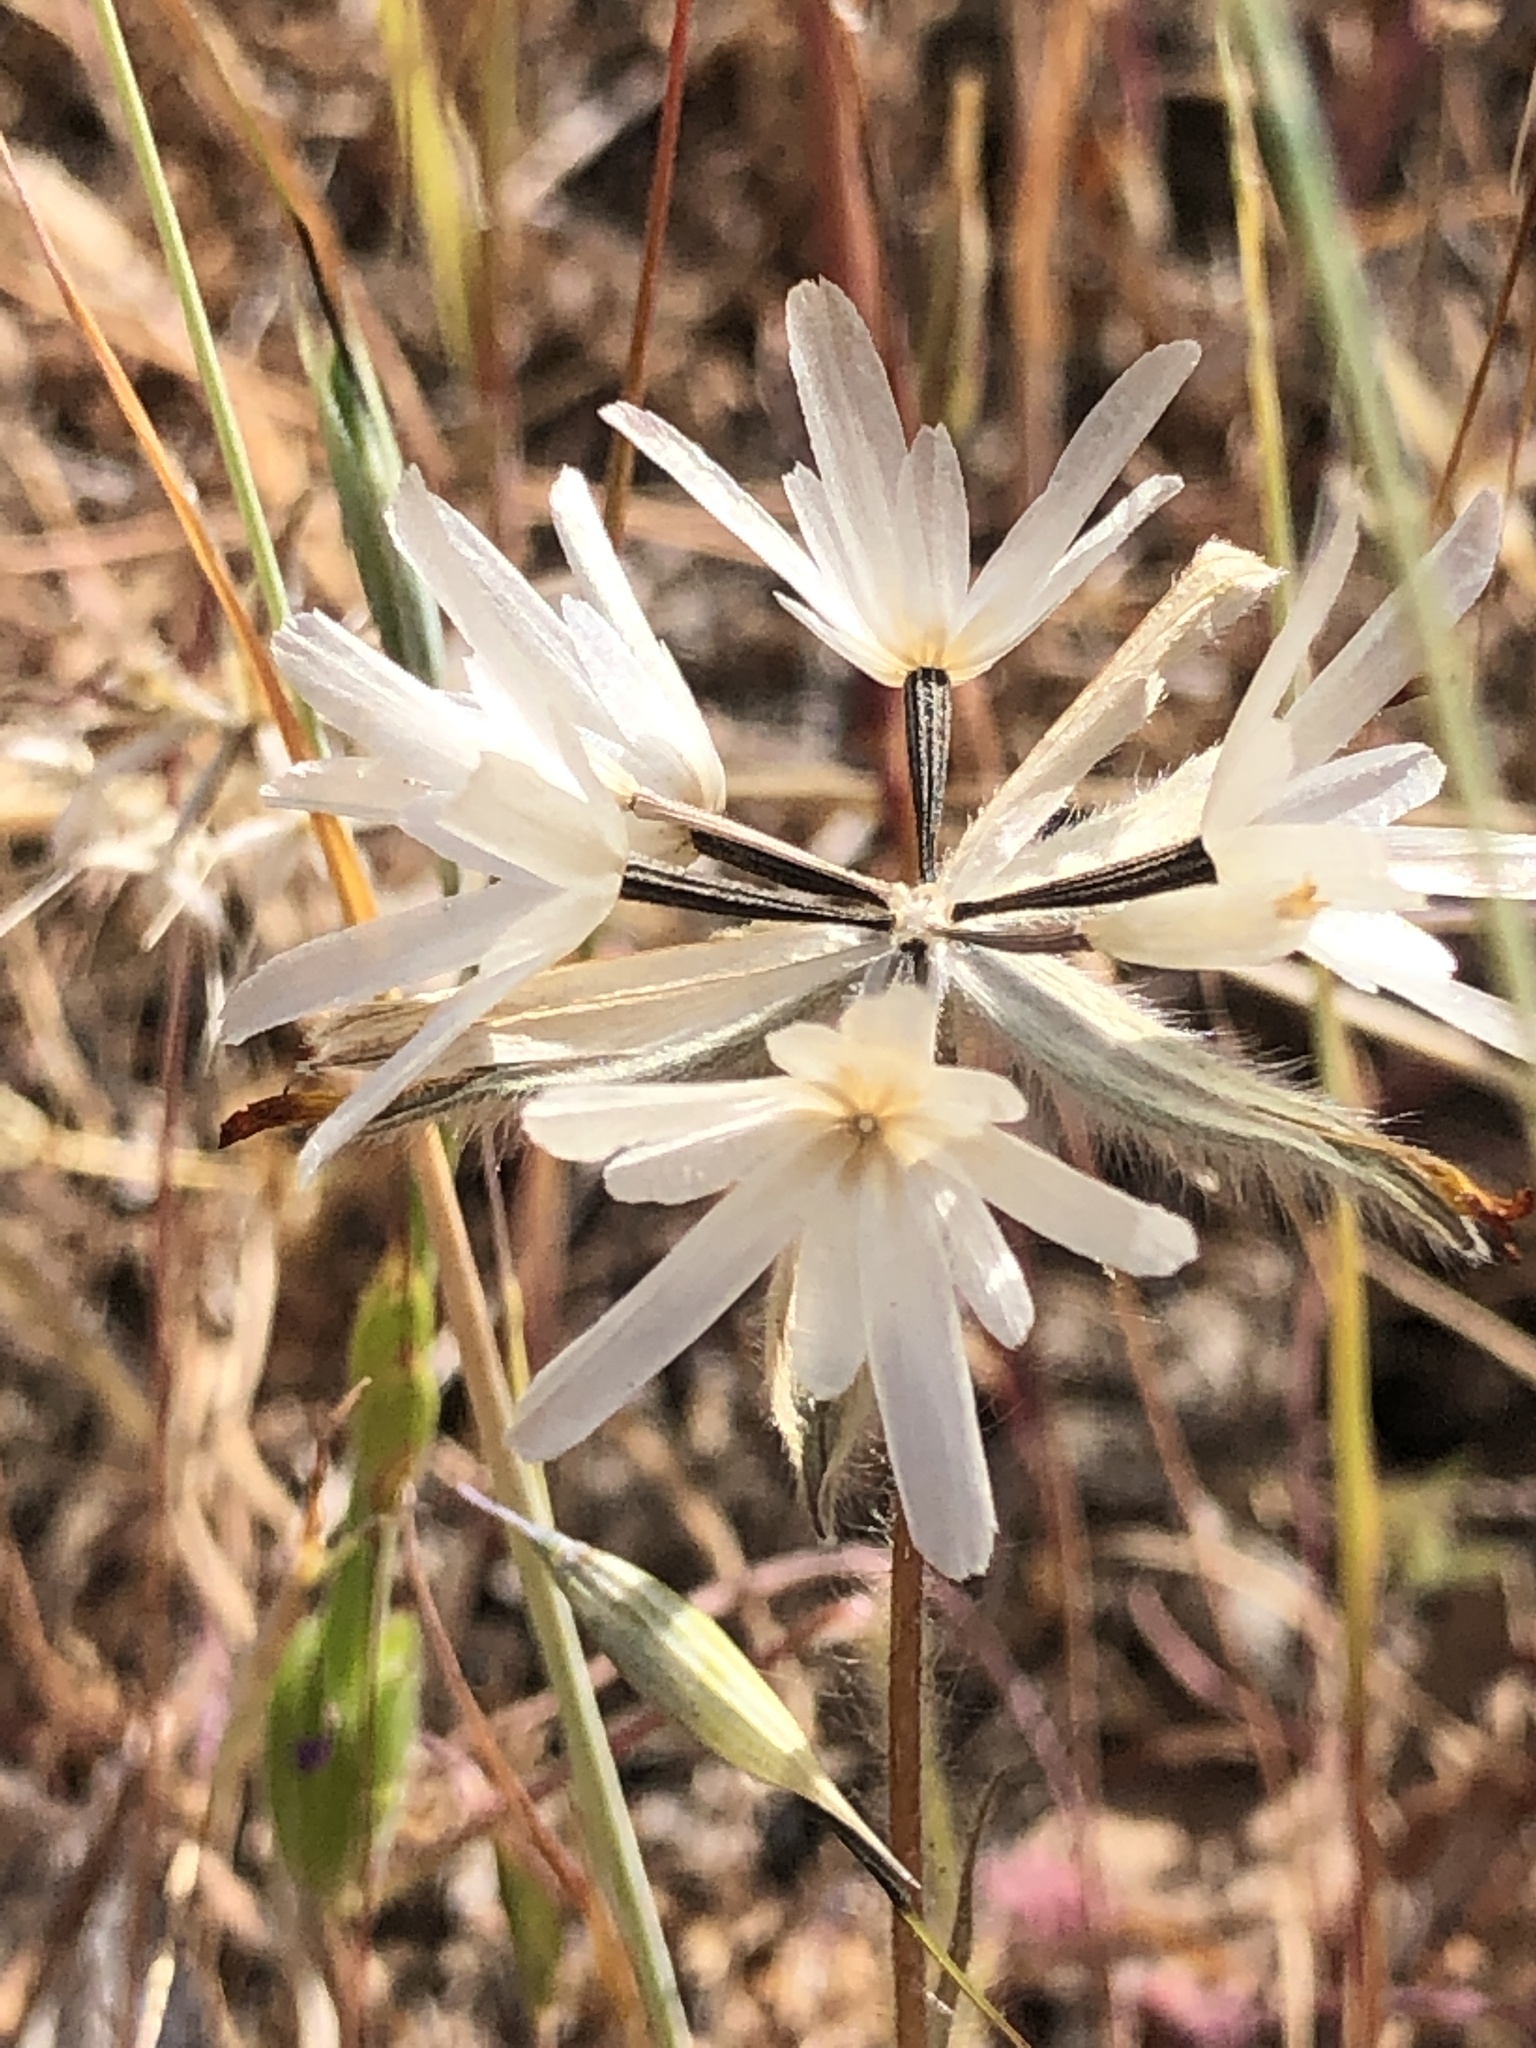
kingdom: Plantae
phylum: Tracheophyta
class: Magnoliopsida
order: Asterales
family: Asteraceae
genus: Achyrachaena
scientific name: Achyrachaena mollis
